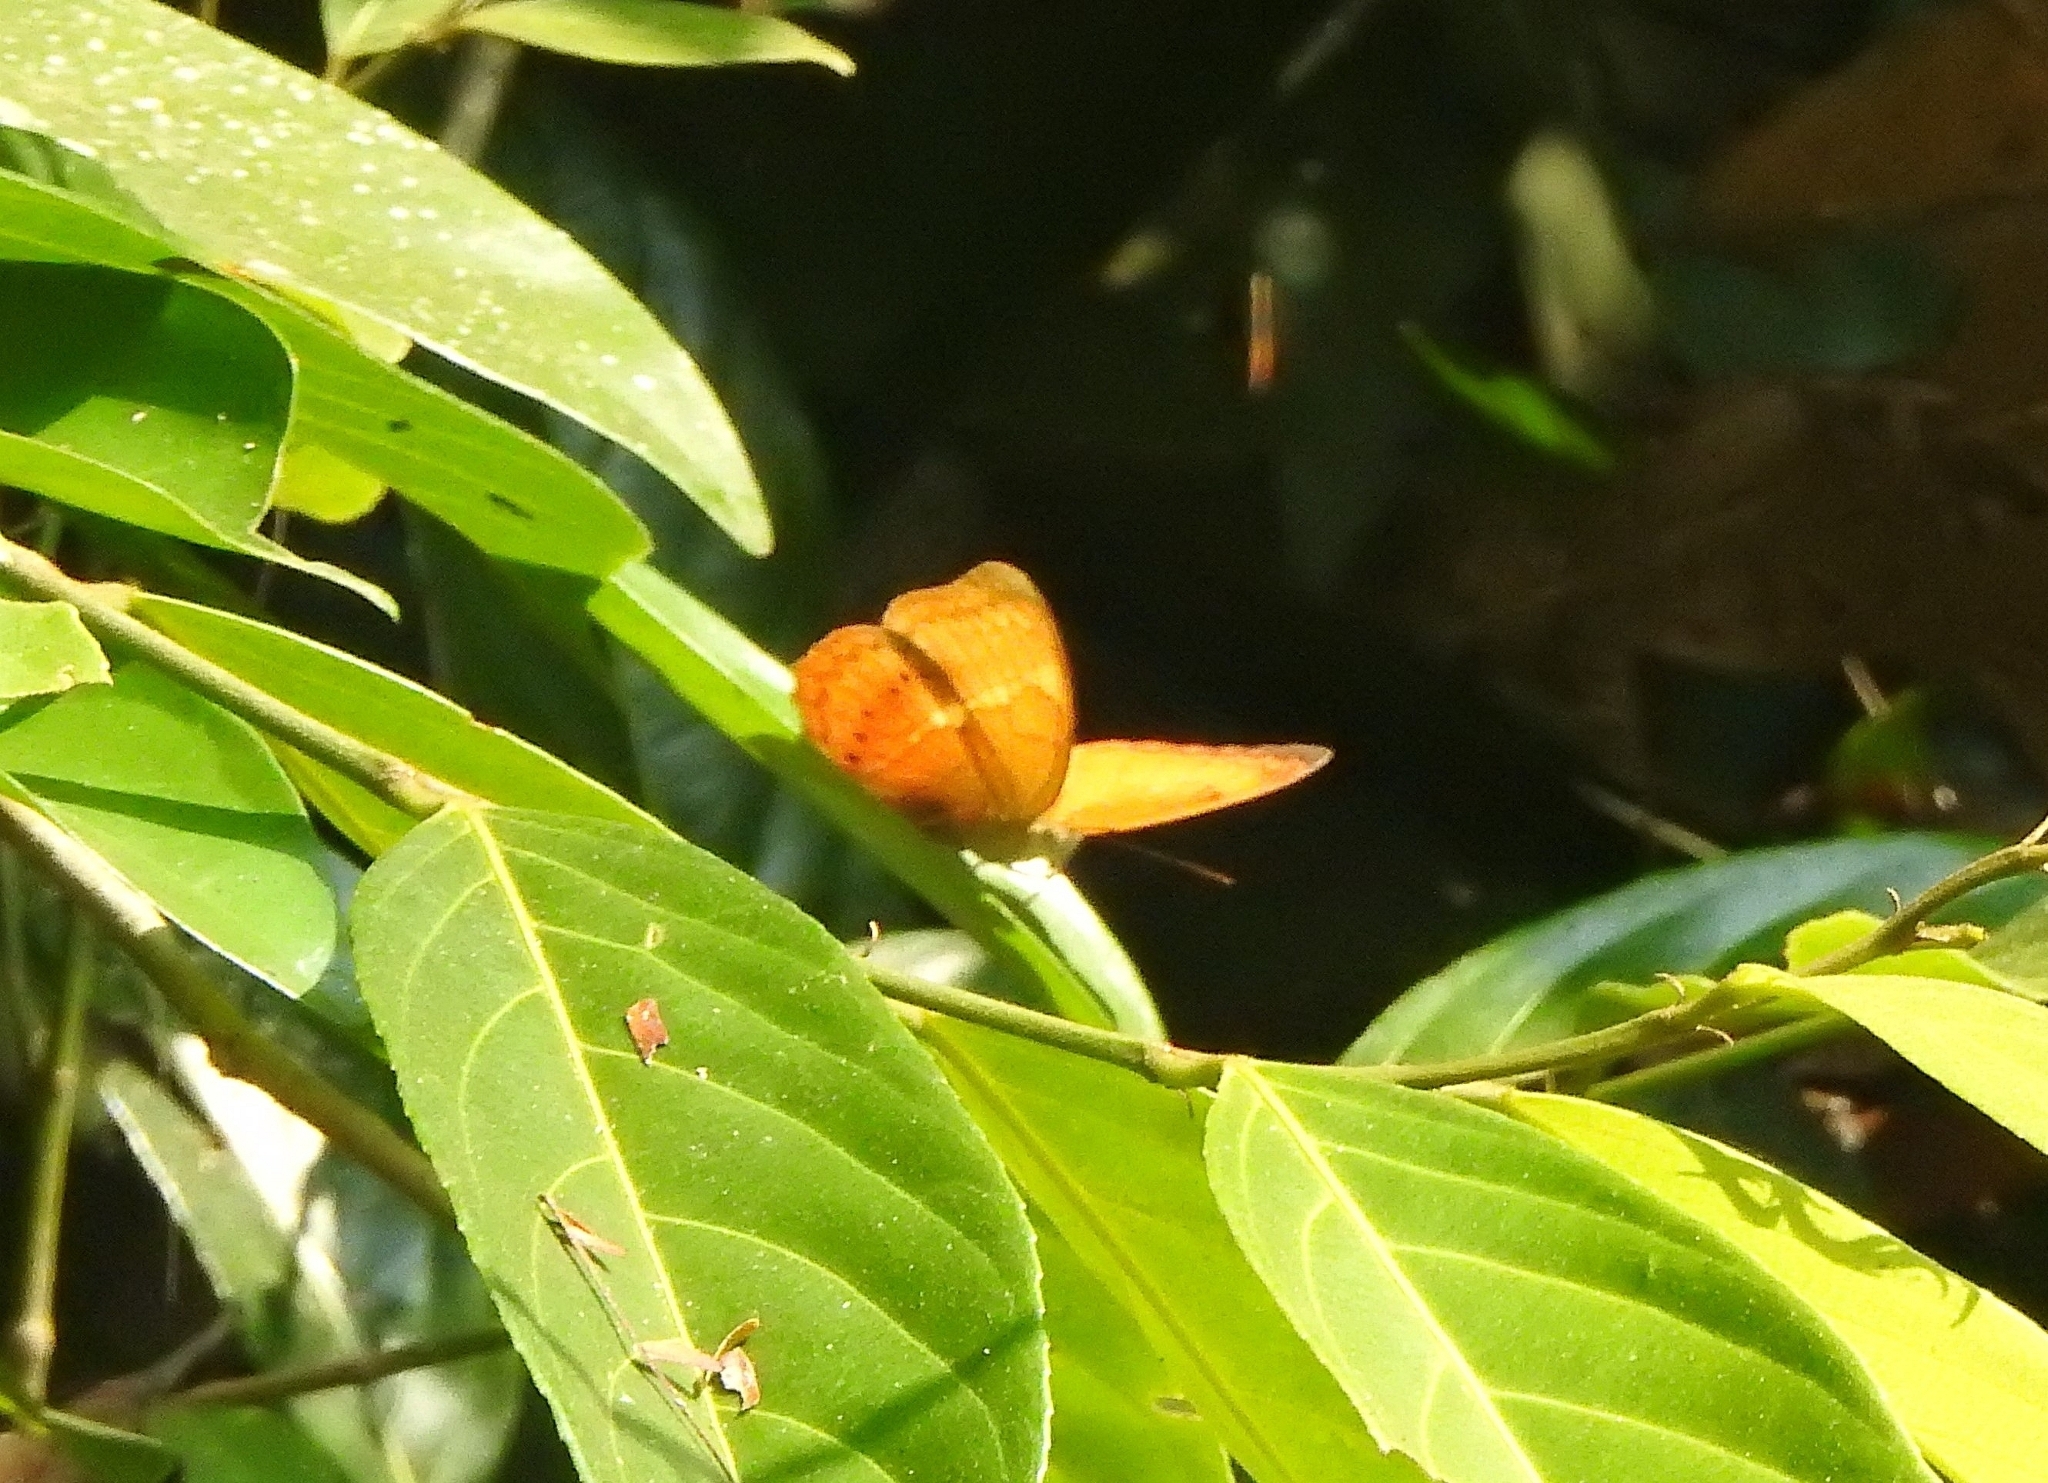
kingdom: Animalia
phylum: Arthropoda
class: Insecta
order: Lepidoptera
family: Nymphalidae
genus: Cirrochroa
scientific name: Cirrochroa thais
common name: Tamil yeoman
